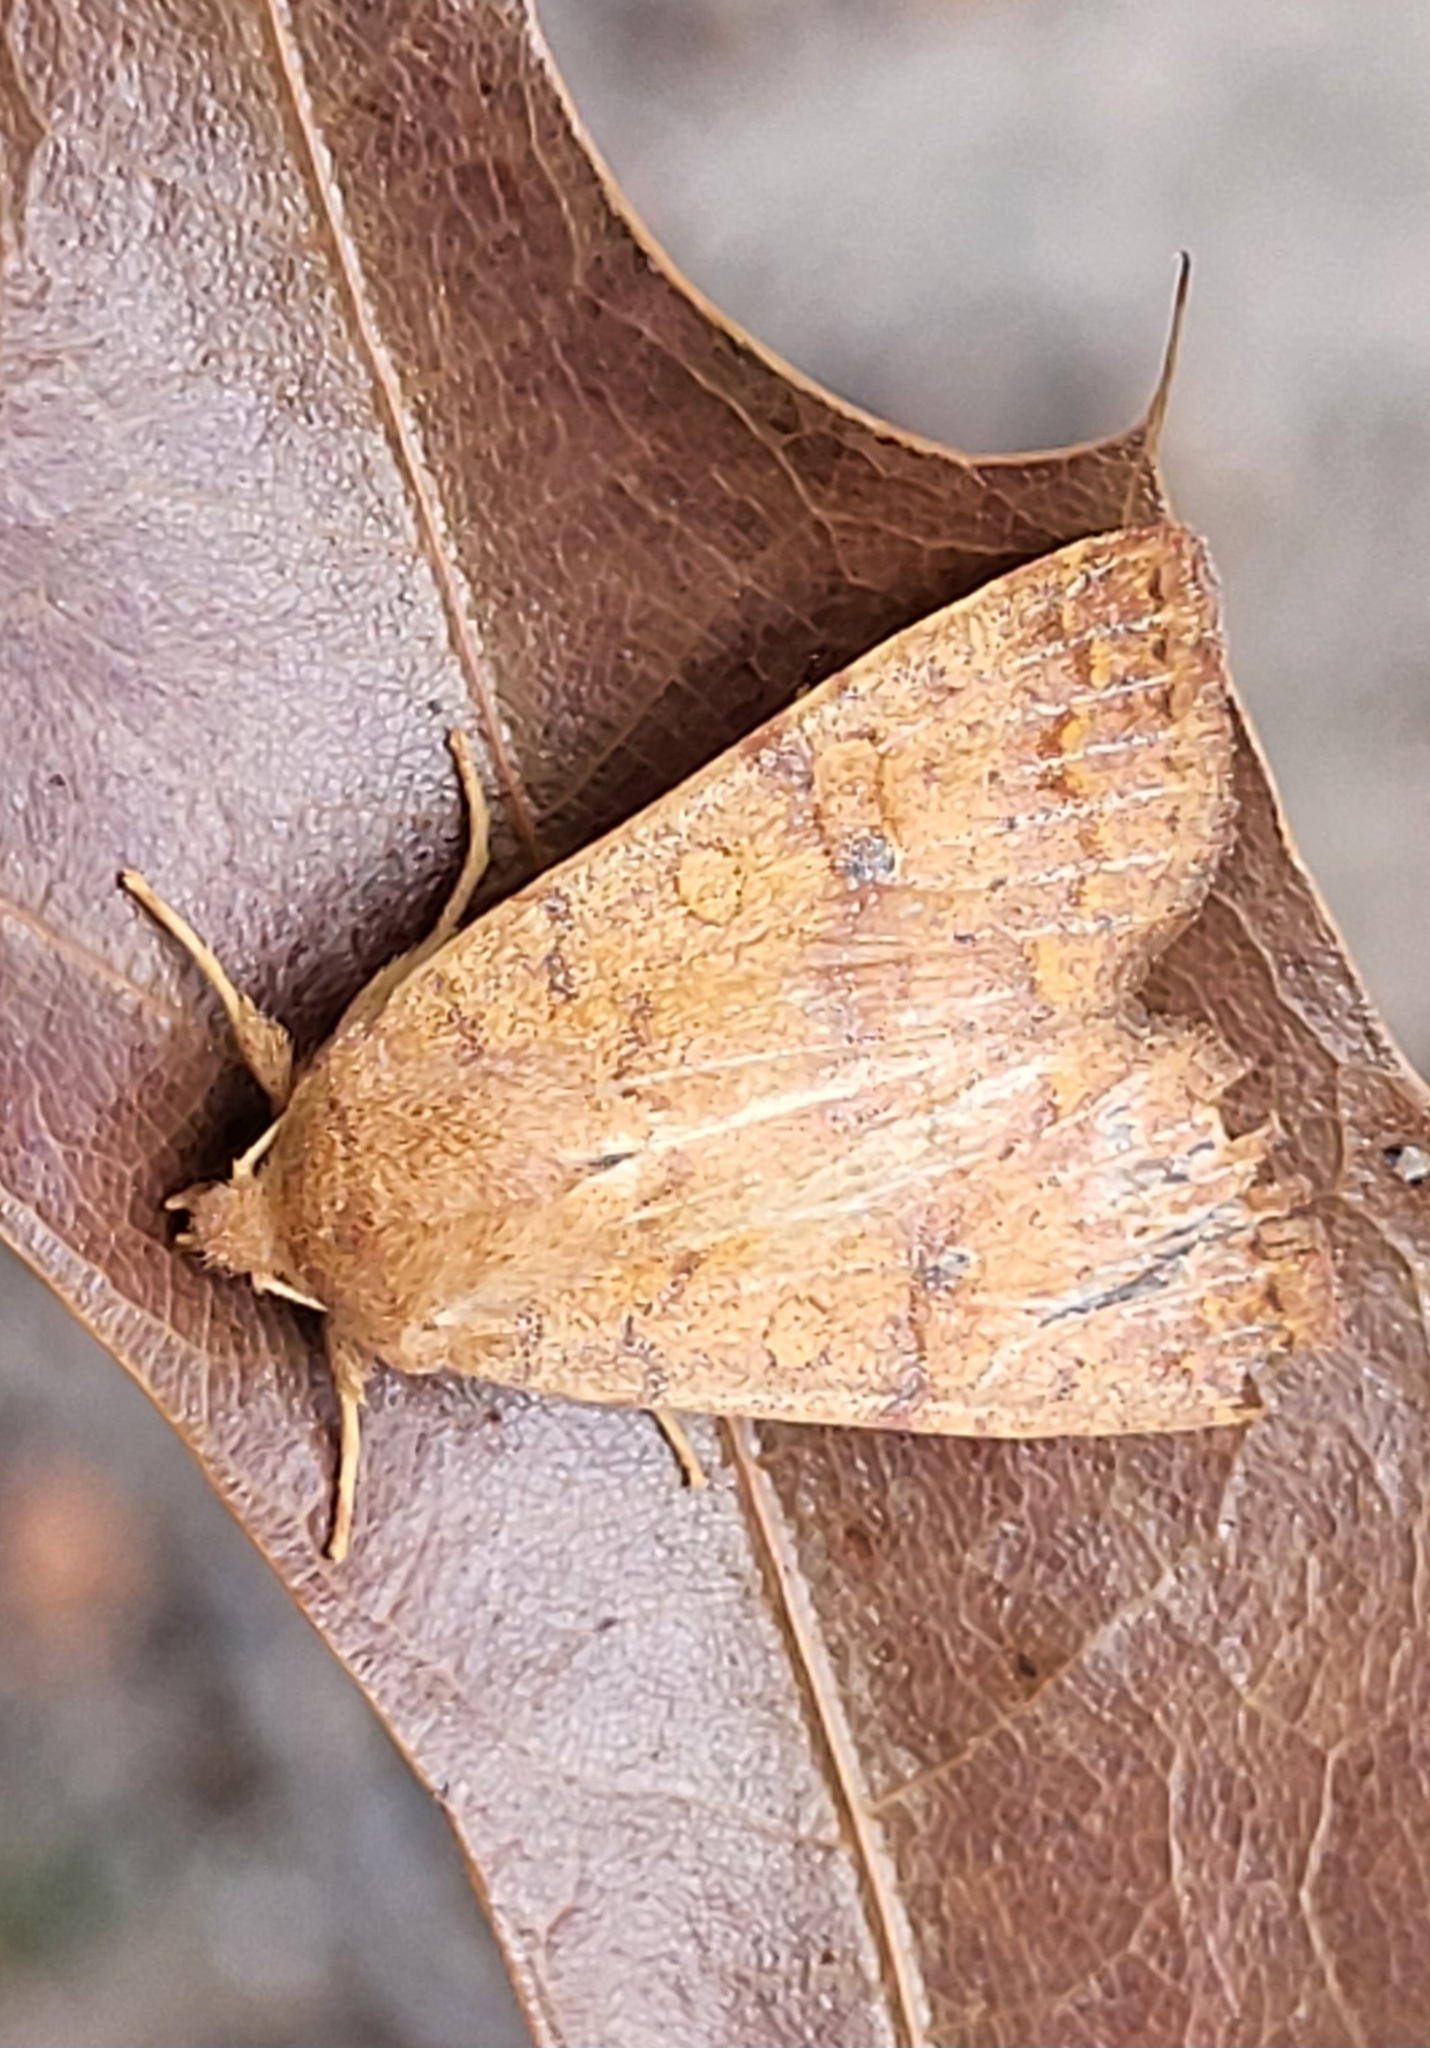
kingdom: Animalia
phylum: Arthropoda
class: Insecta
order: Lepidoptera
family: Noctuidae
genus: Agrochola
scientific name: Agrochola bicolorago
